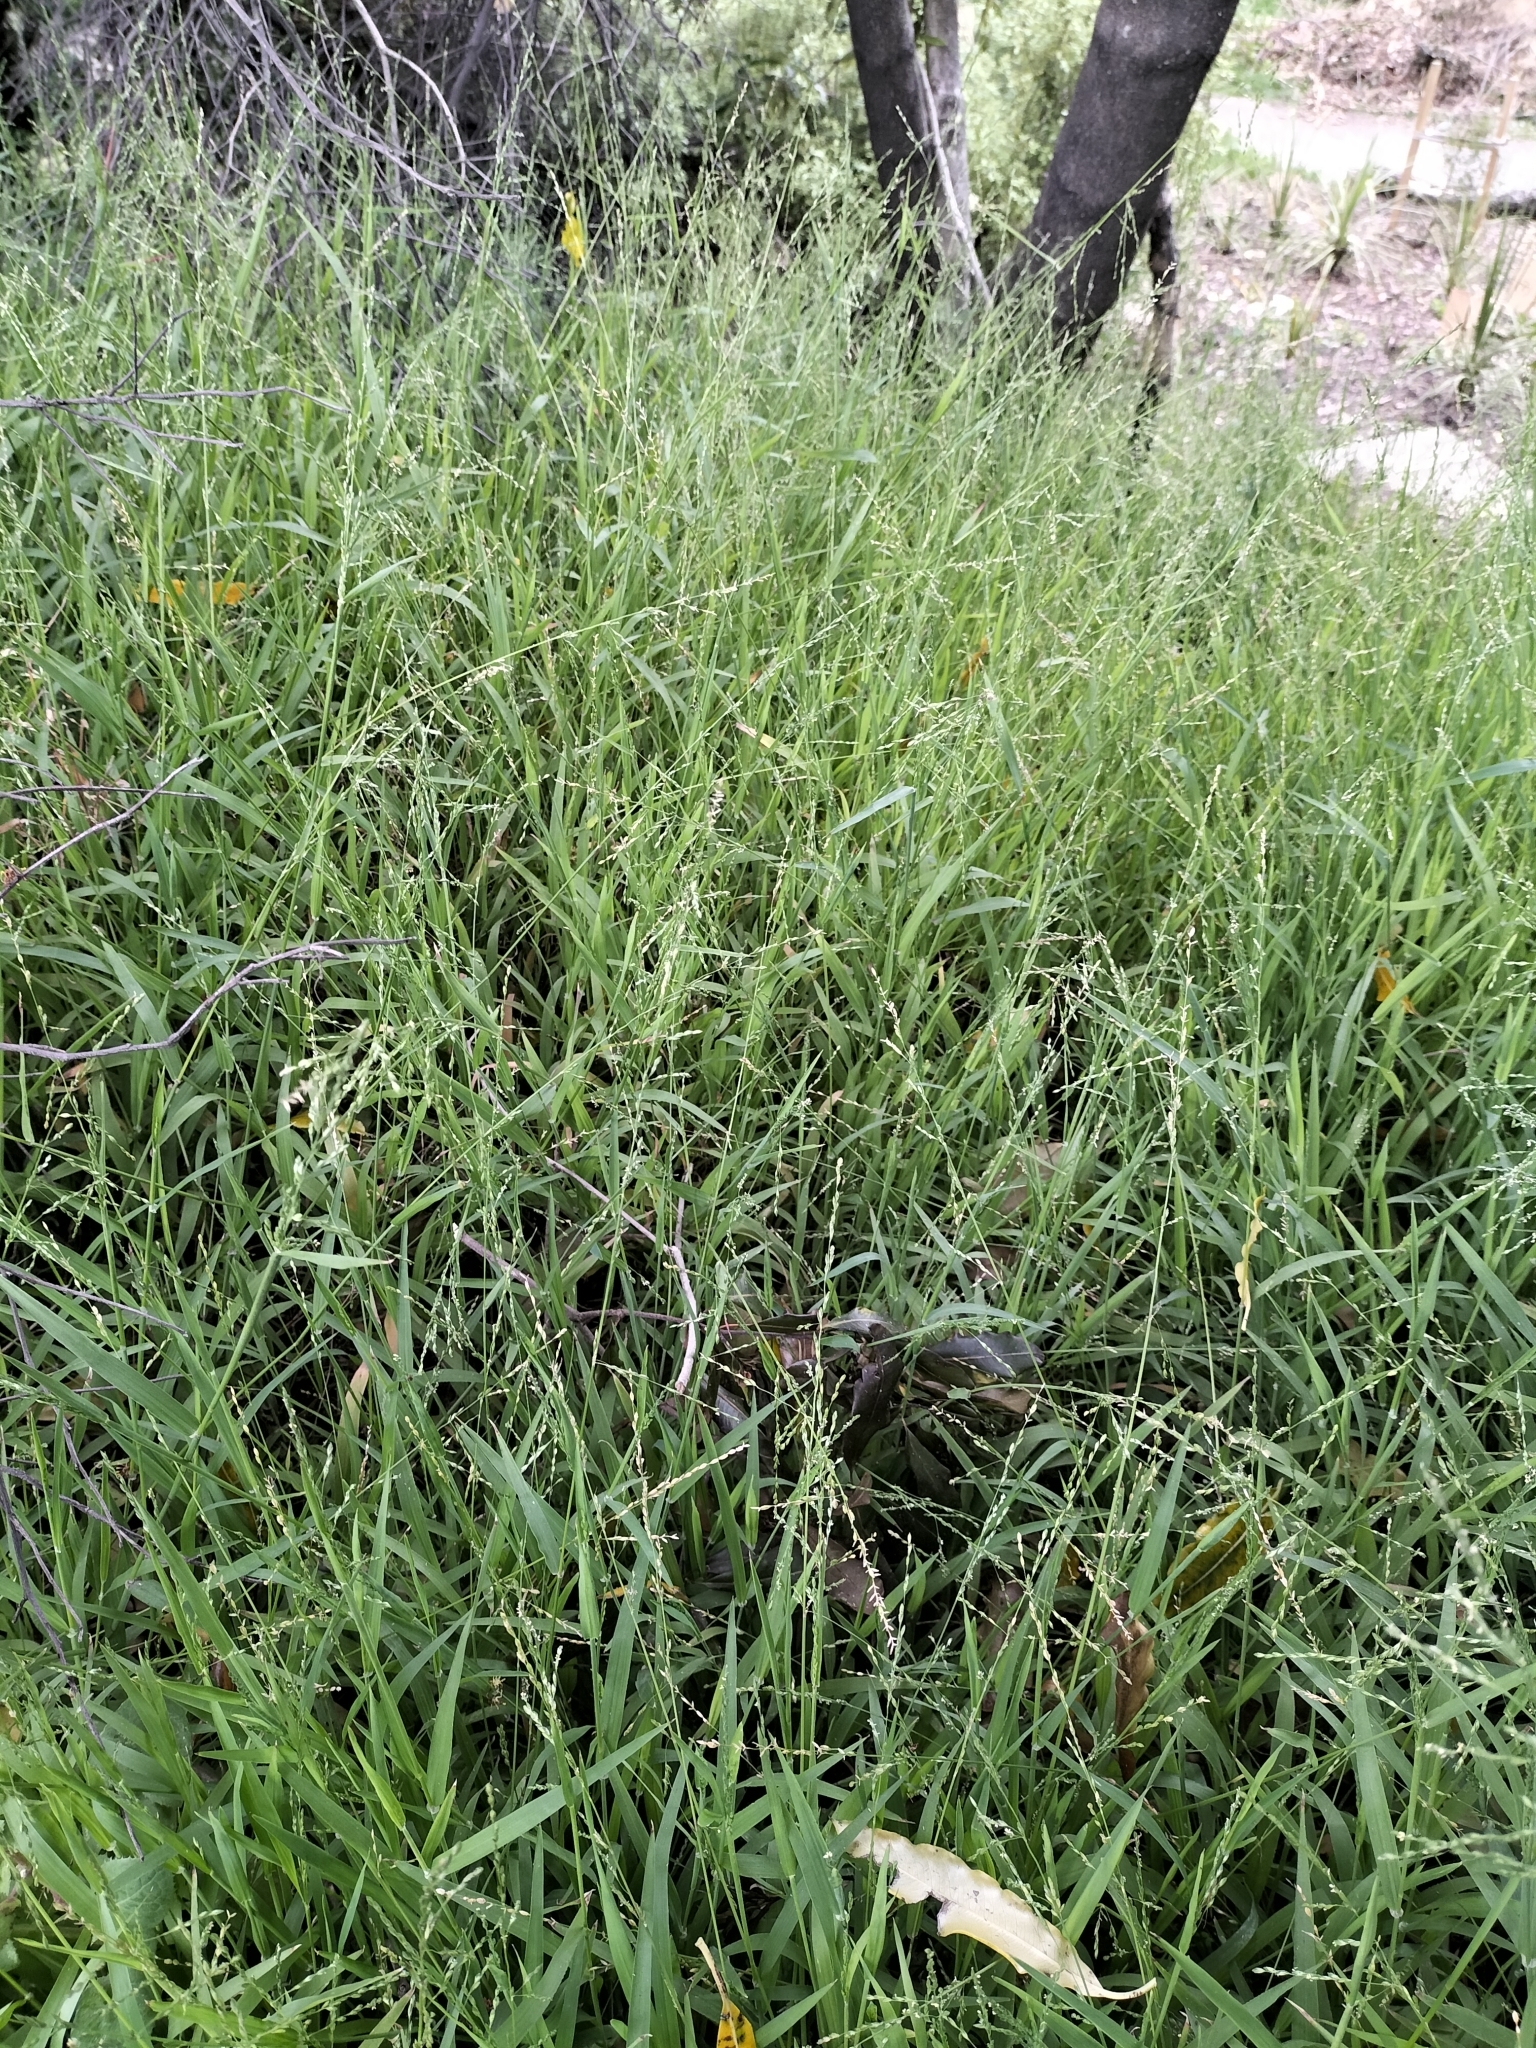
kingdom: Plantae
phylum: Tracheophyta
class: Liliopsida
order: Poales
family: Poaceae
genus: Ehrharta
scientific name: Ehrharta erecta
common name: Panic veldtgrass
